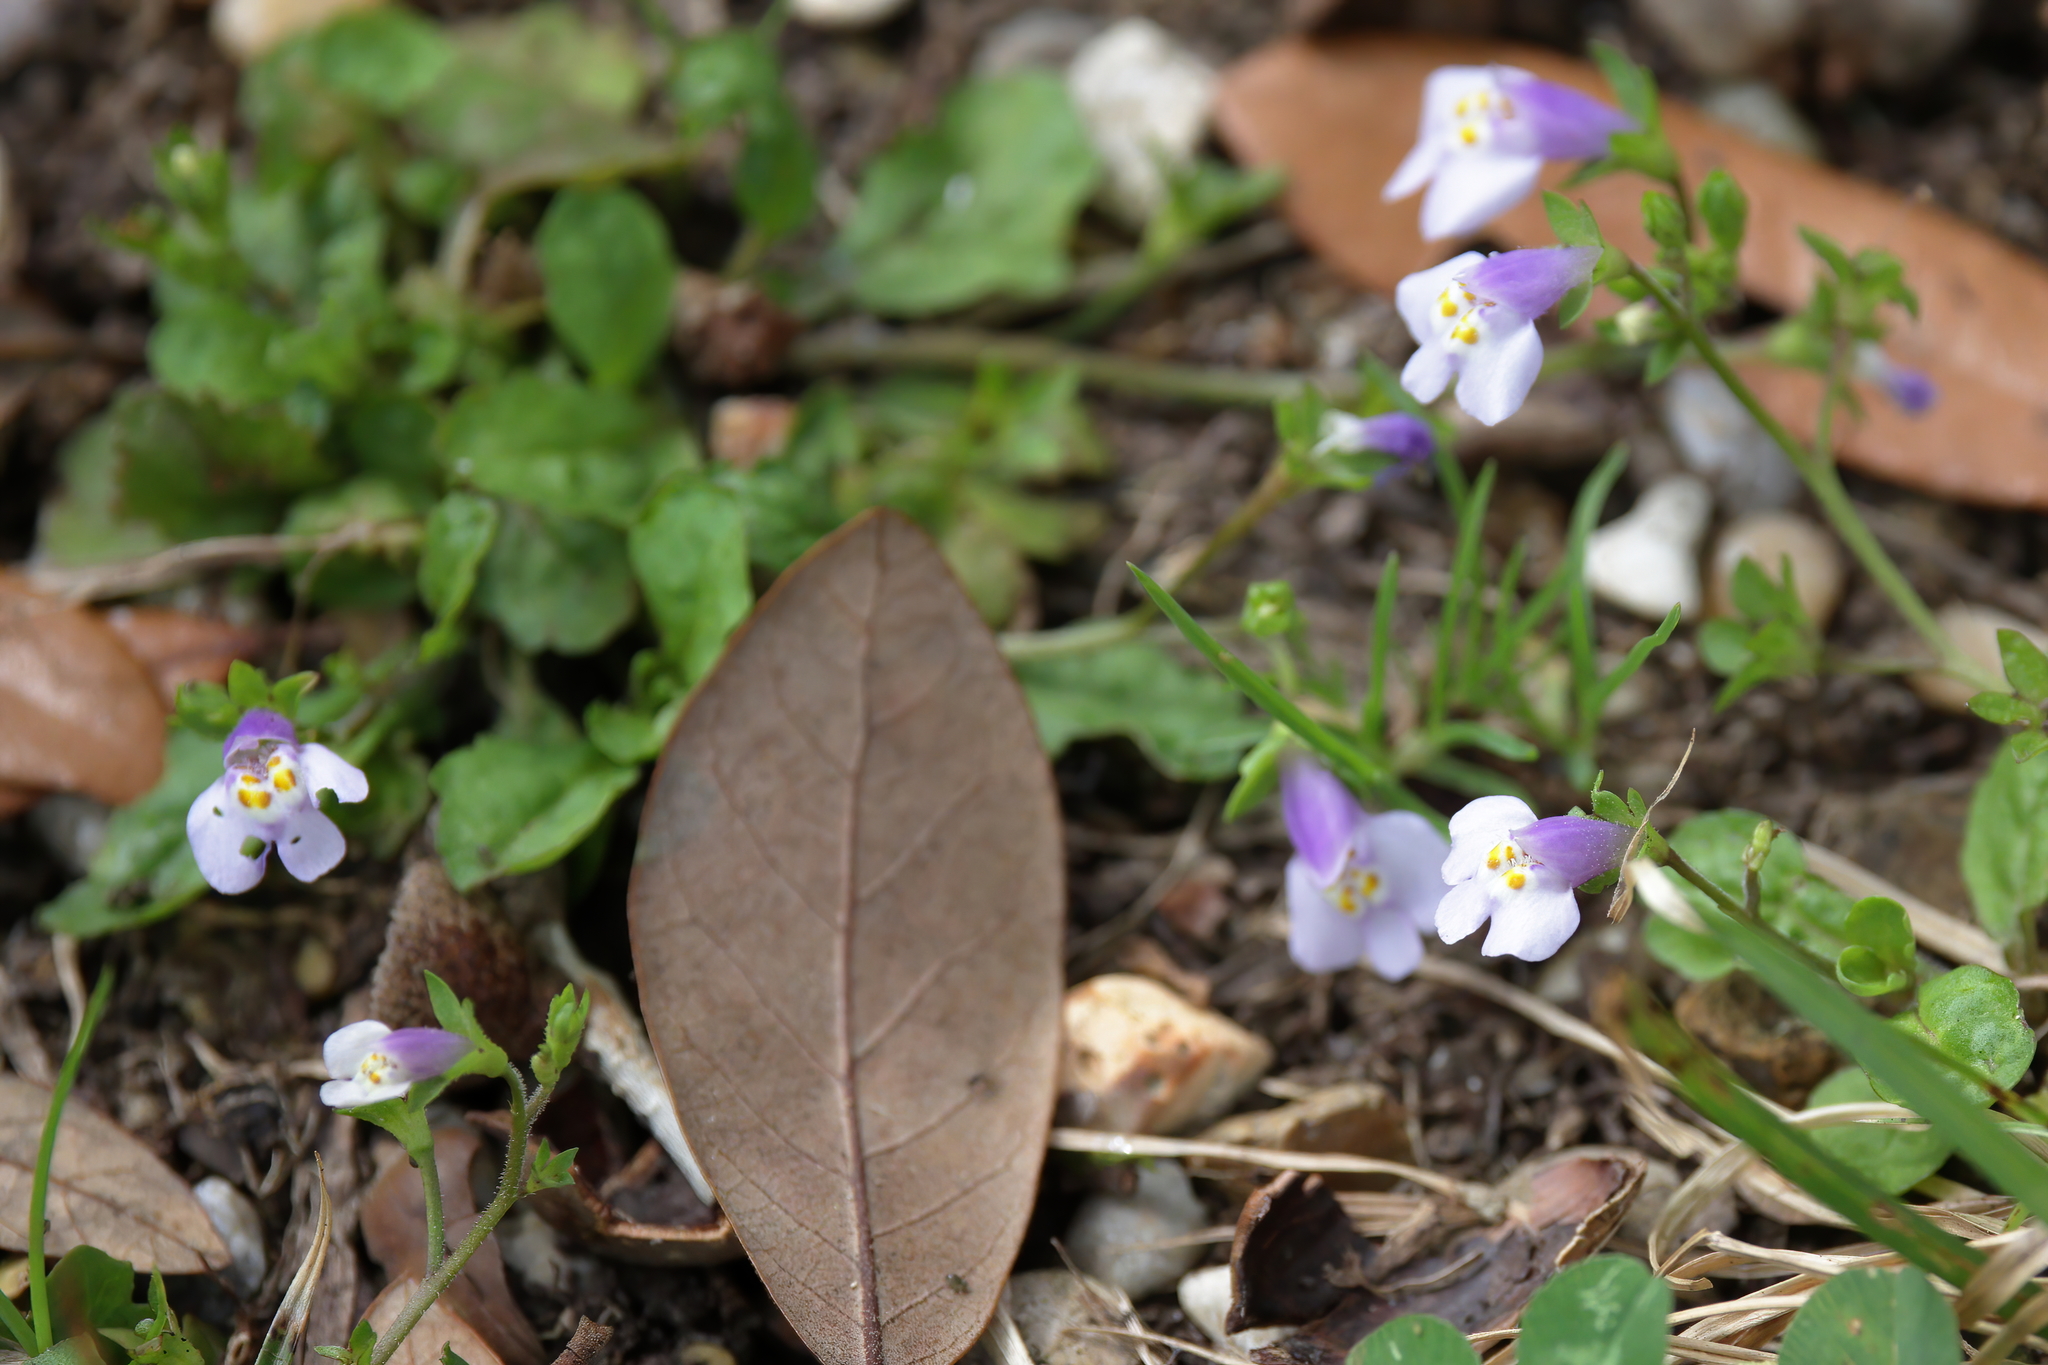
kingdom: Plantae
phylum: Tracheophyta
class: Magnoliopsida
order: Lamiales
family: Mazaceae
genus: Mazus
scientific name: Mazus pumilus
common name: Japanese mazus
